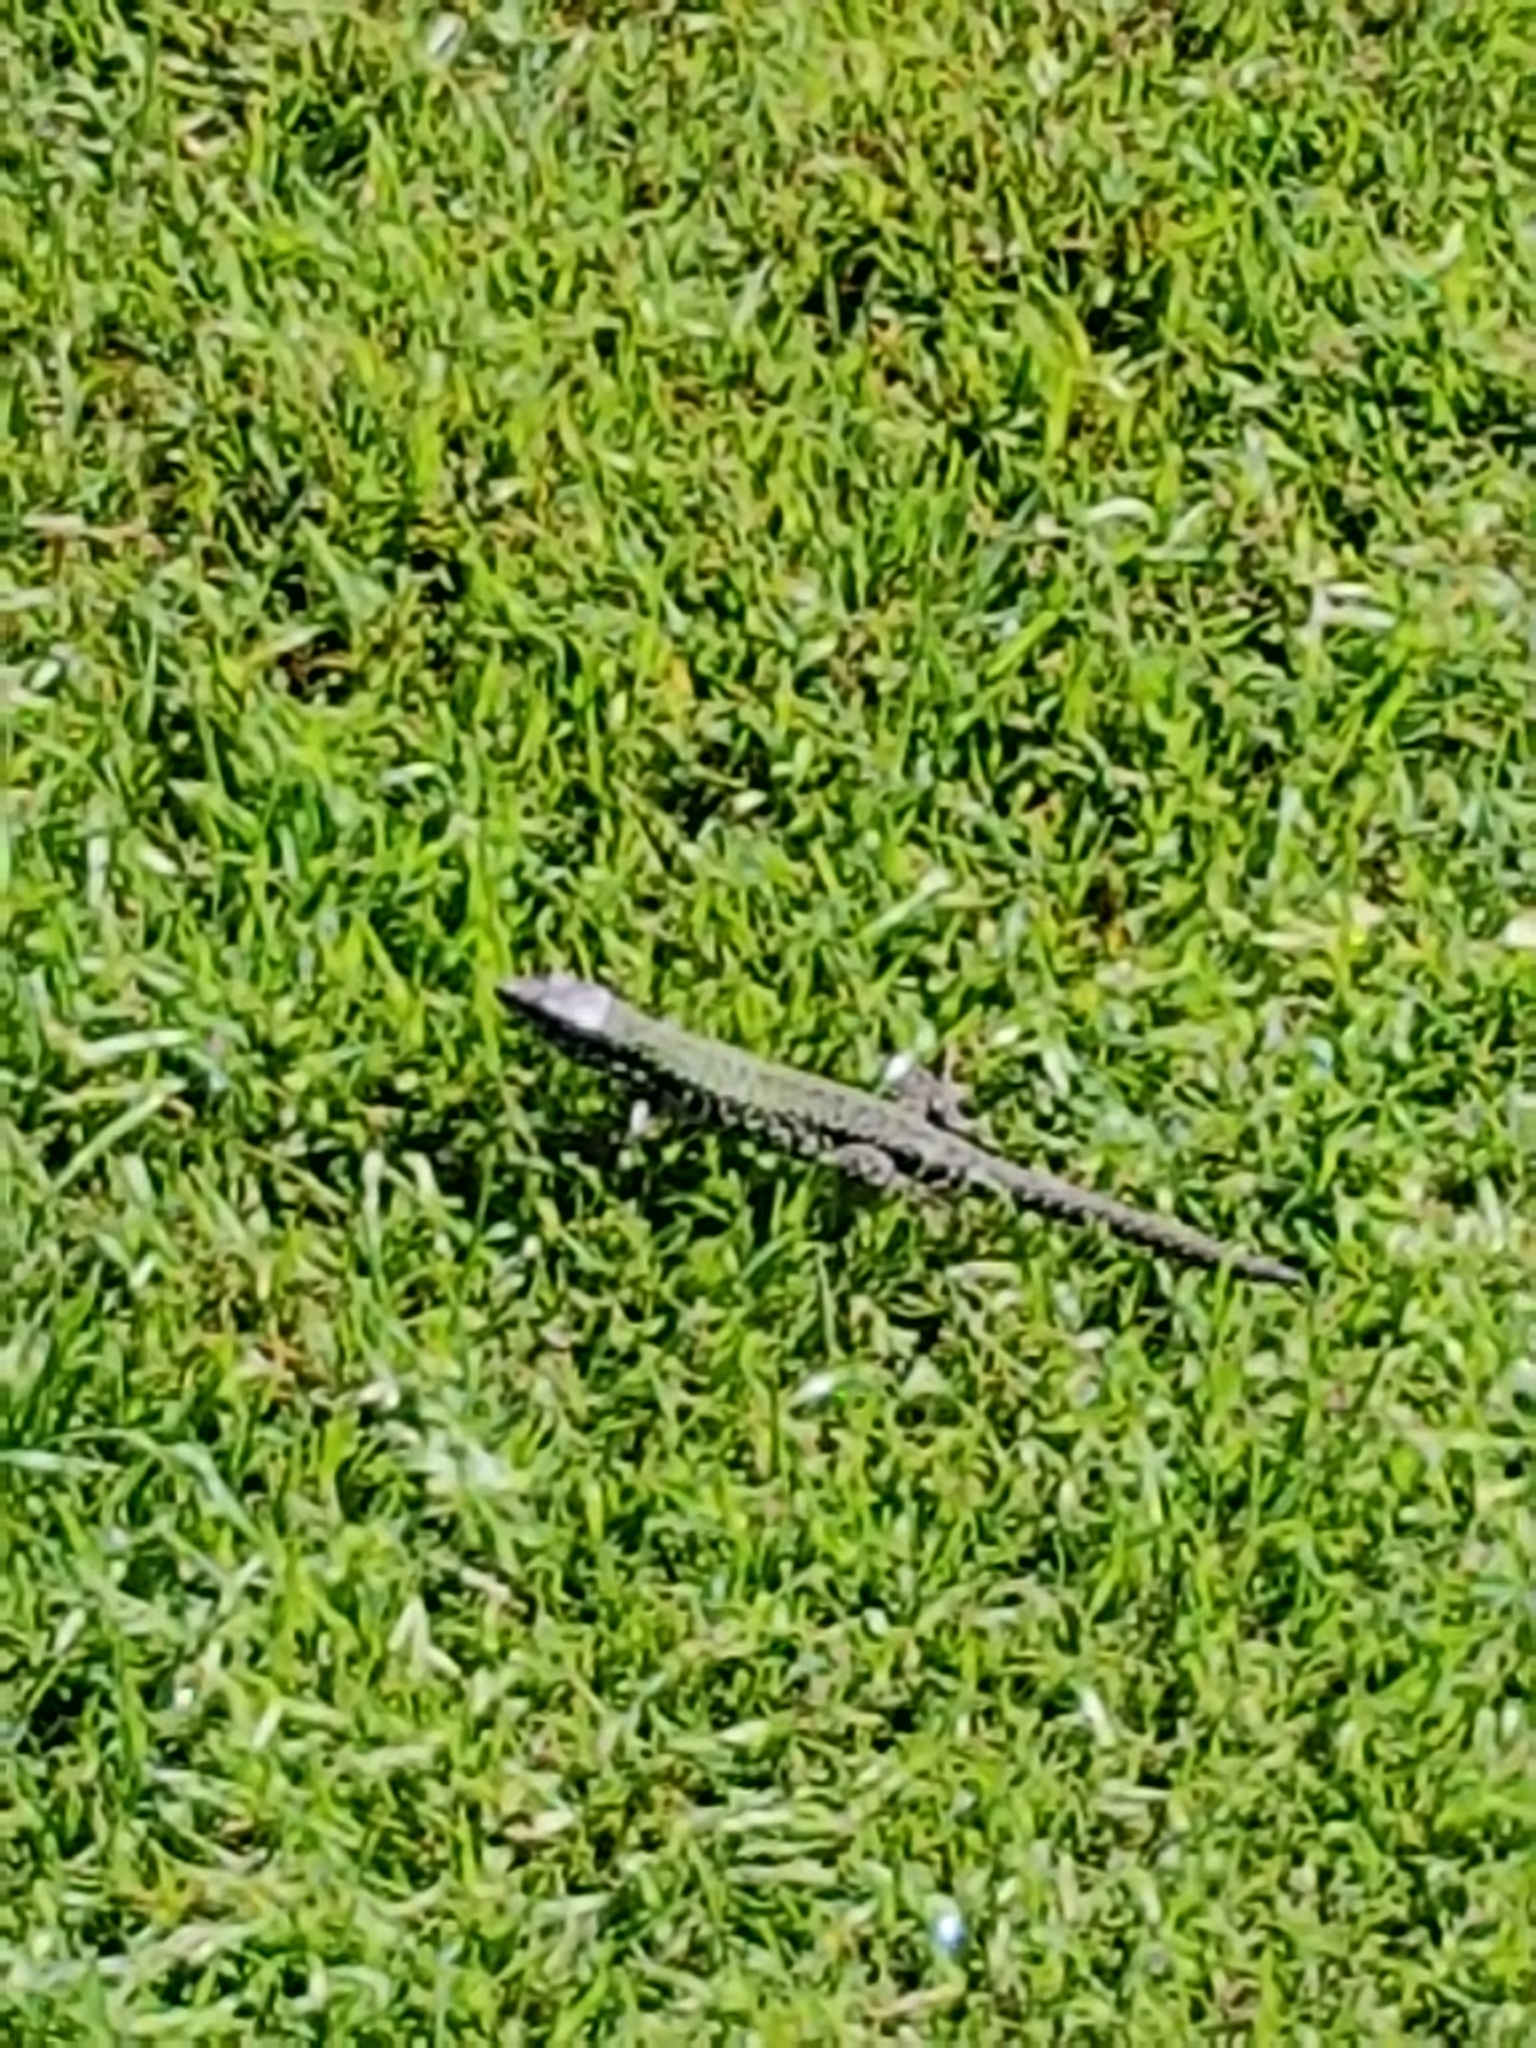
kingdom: Animalia
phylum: Chordata
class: Squamata
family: Lacertidae
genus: Podarcis
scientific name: Podarcis muralis
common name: Common wall lizard
